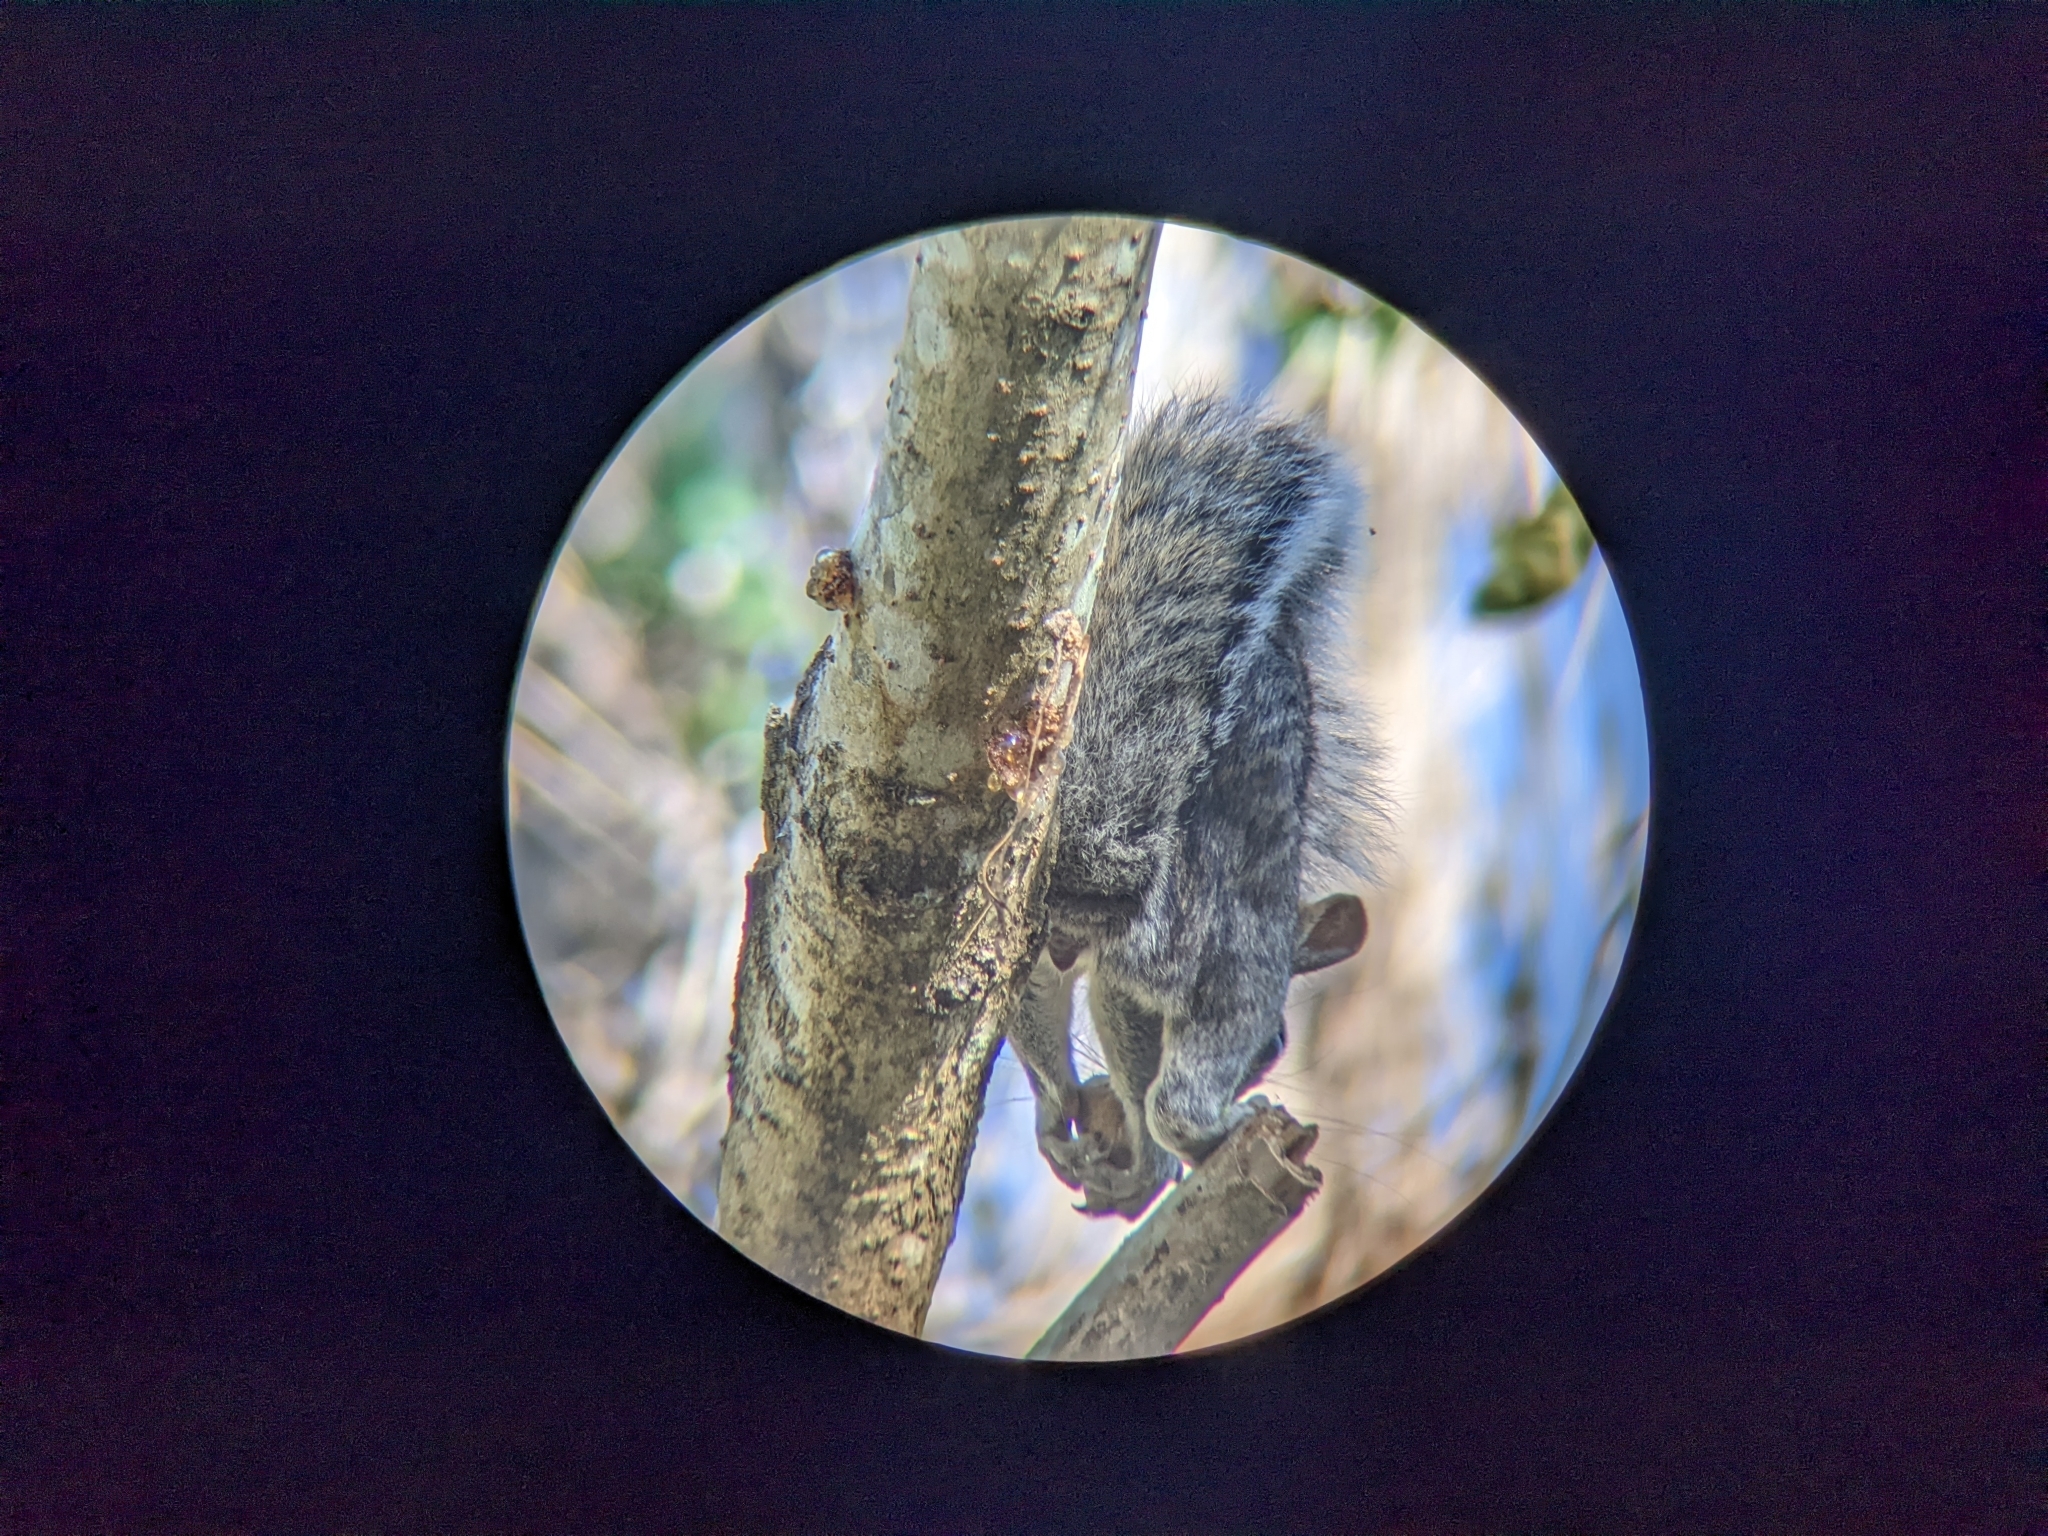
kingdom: Animalia
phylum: Chordata
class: Mammalia
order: Rodentia
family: Sciuridae
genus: Sciurus
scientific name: Sciurus colliaei
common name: Collie's squirrel
